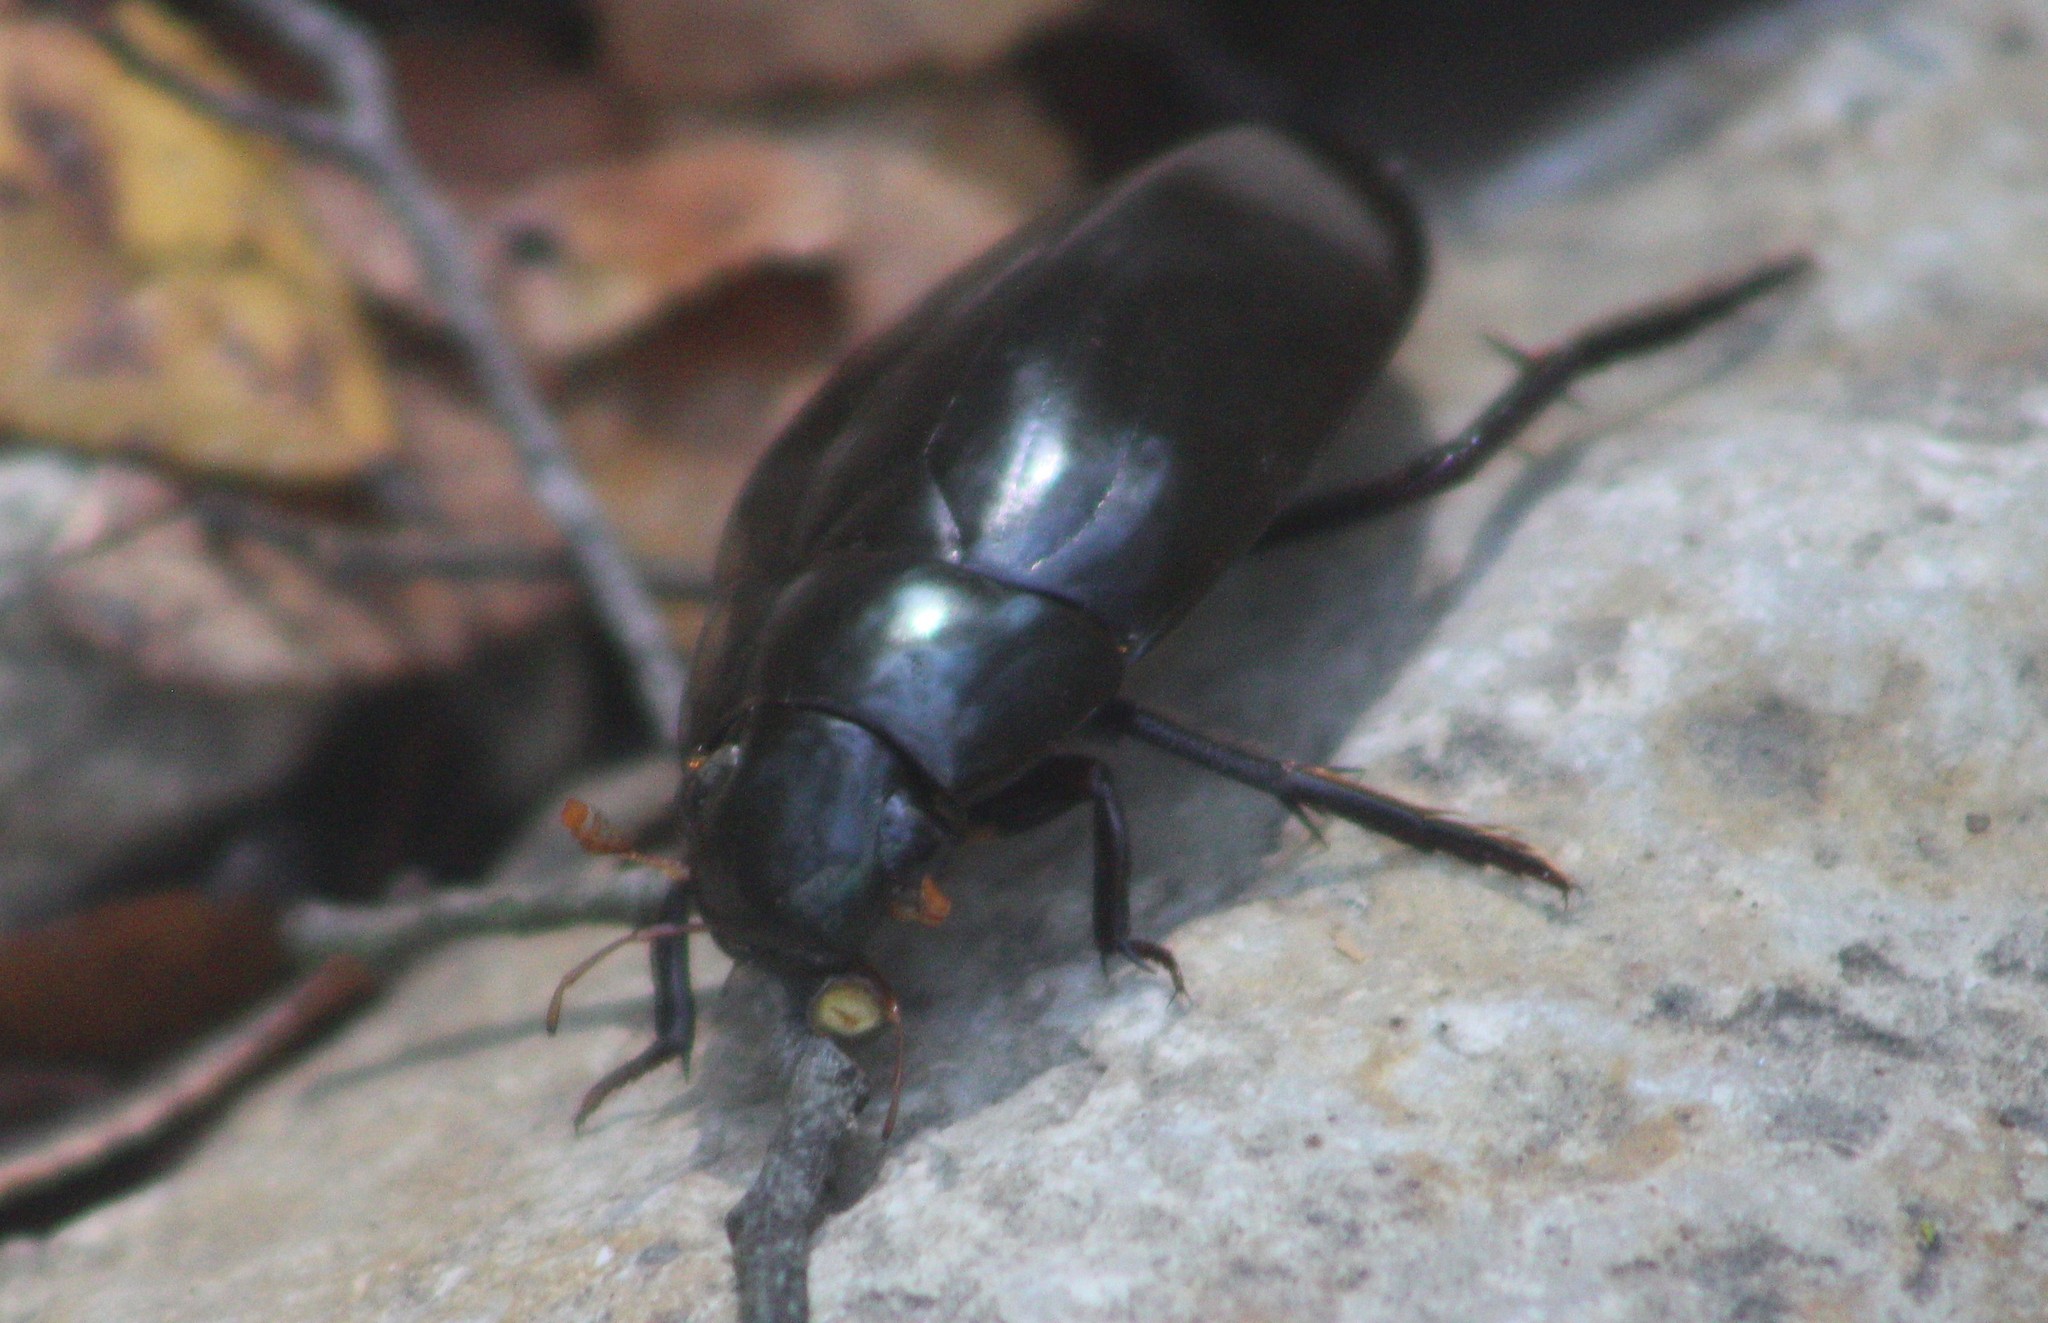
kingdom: Animalia
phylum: Arthropoda
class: Insecta
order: Coleoptera
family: Hydrophilidae
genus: Hydrophilus
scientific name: Hydrophilus triangularis
